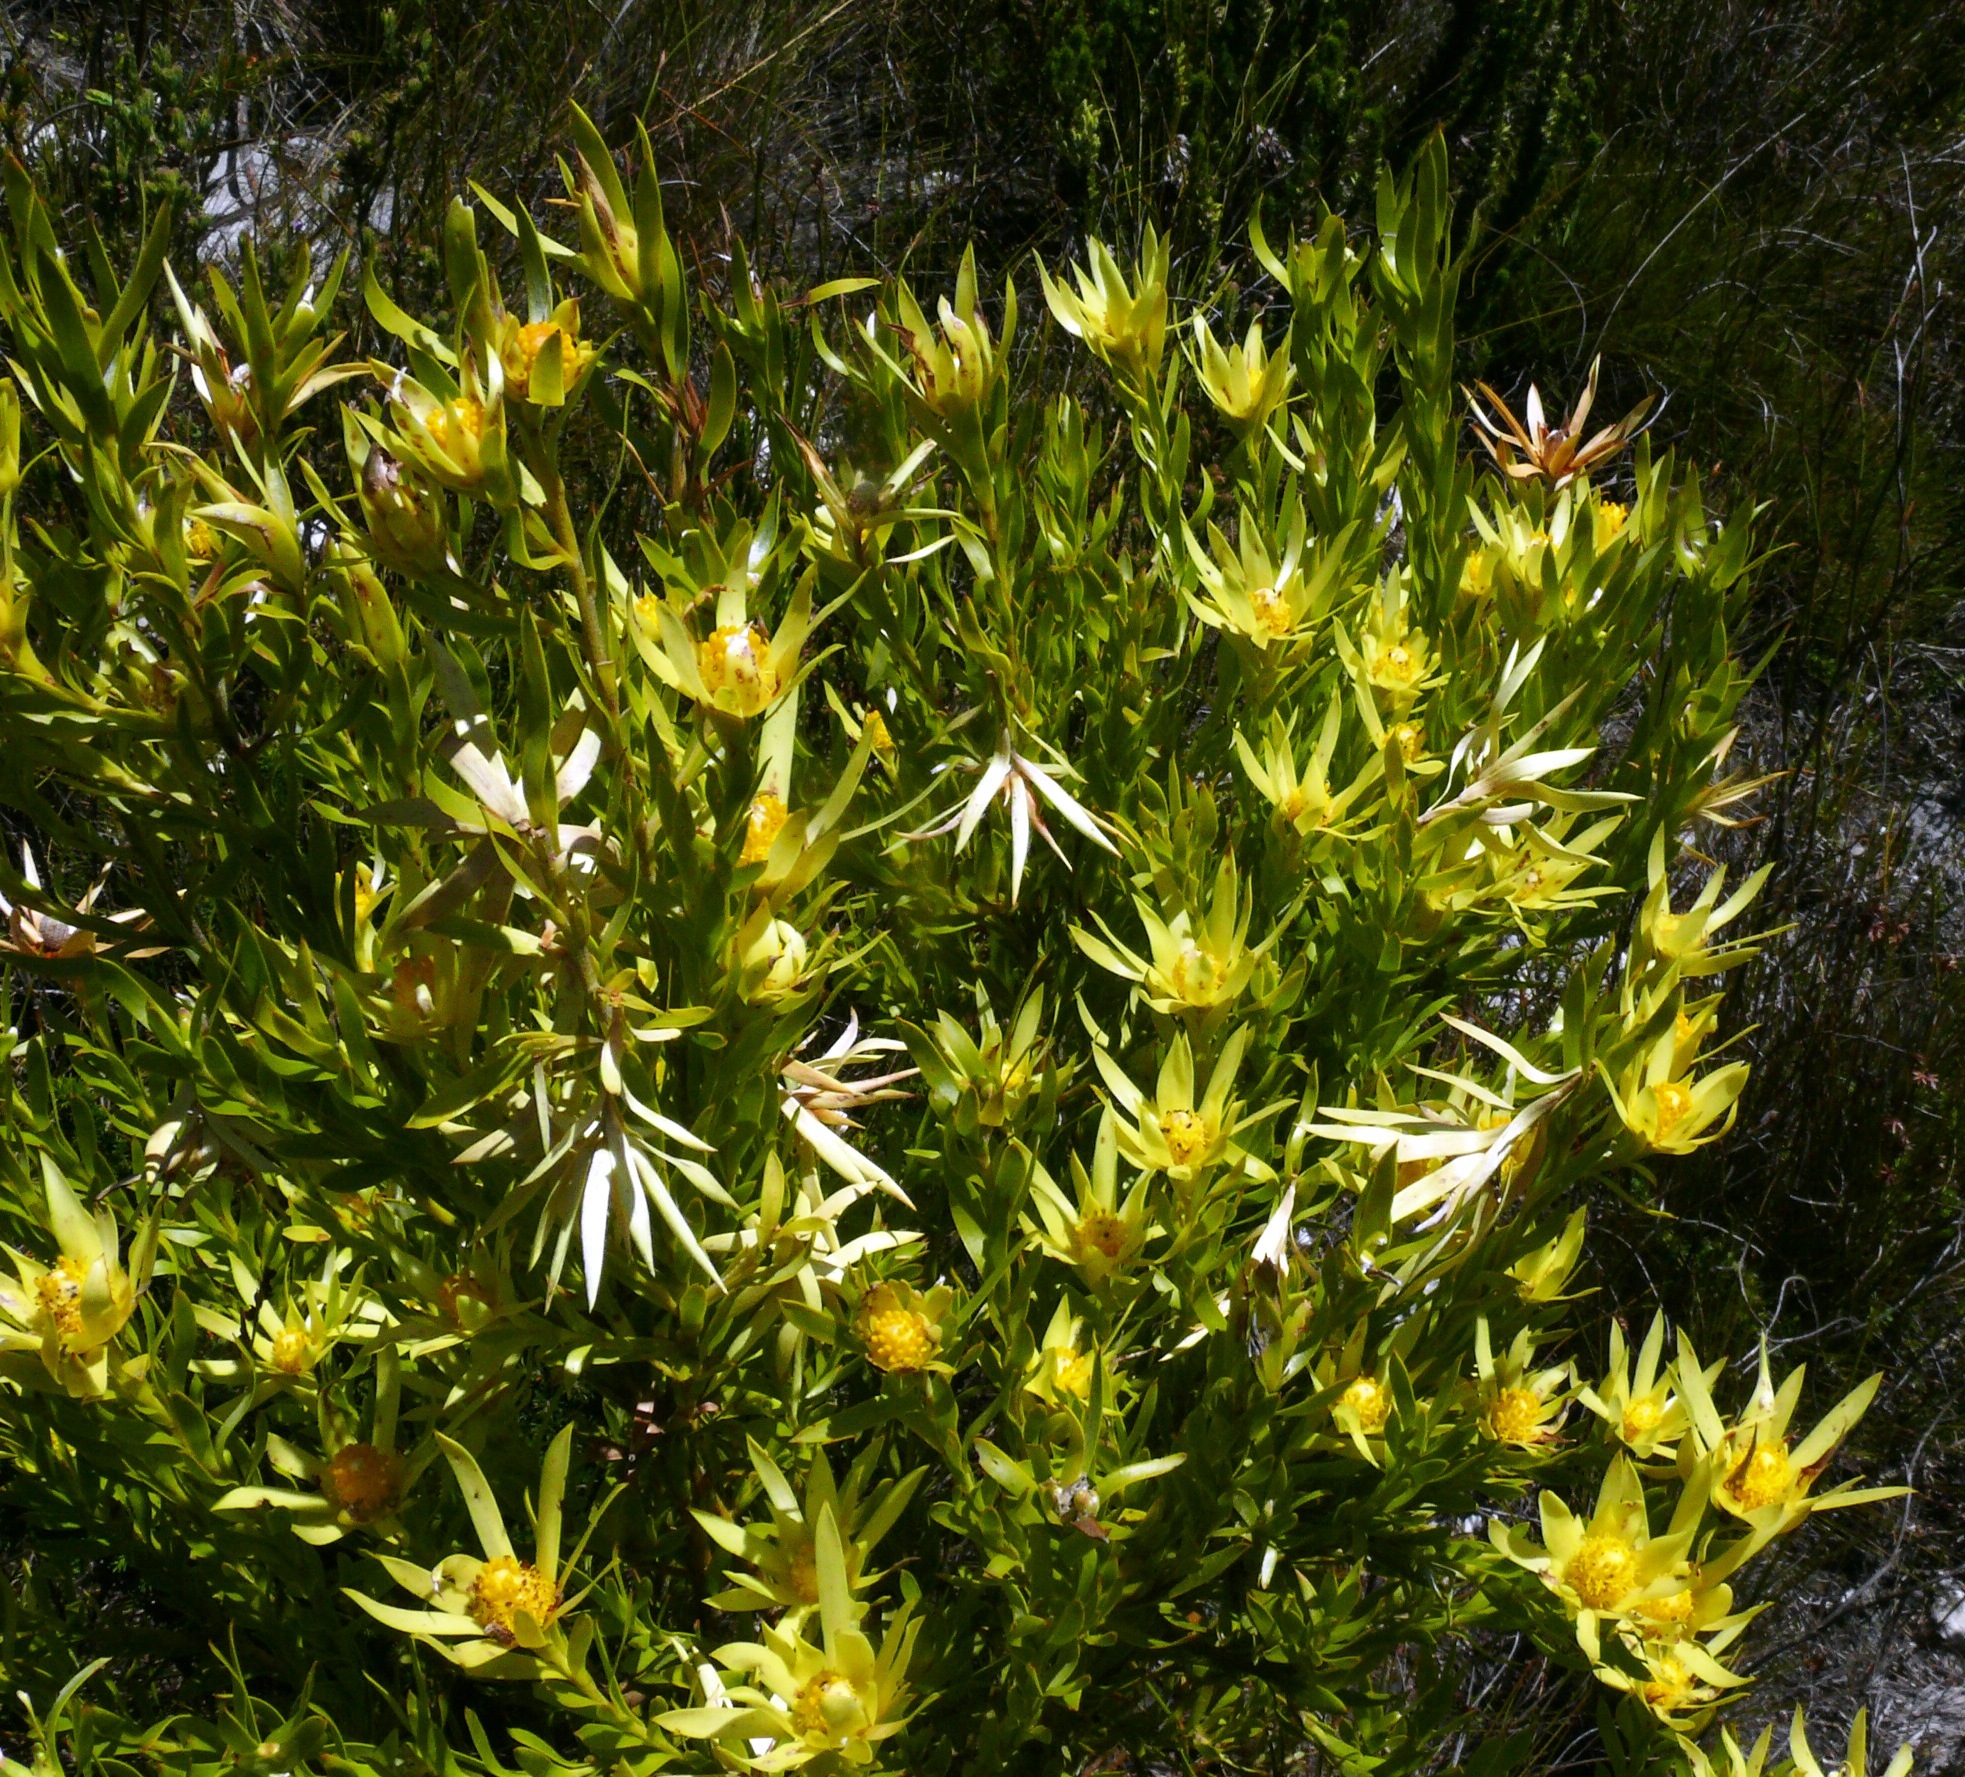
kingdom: Plantae
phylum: Tracheophyta
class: Magnoliopsida
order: Proteales
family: Proteaceae
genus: Leucadendron
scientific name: Leucadendron xanthoconus
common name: Sickle-leaf conebush
